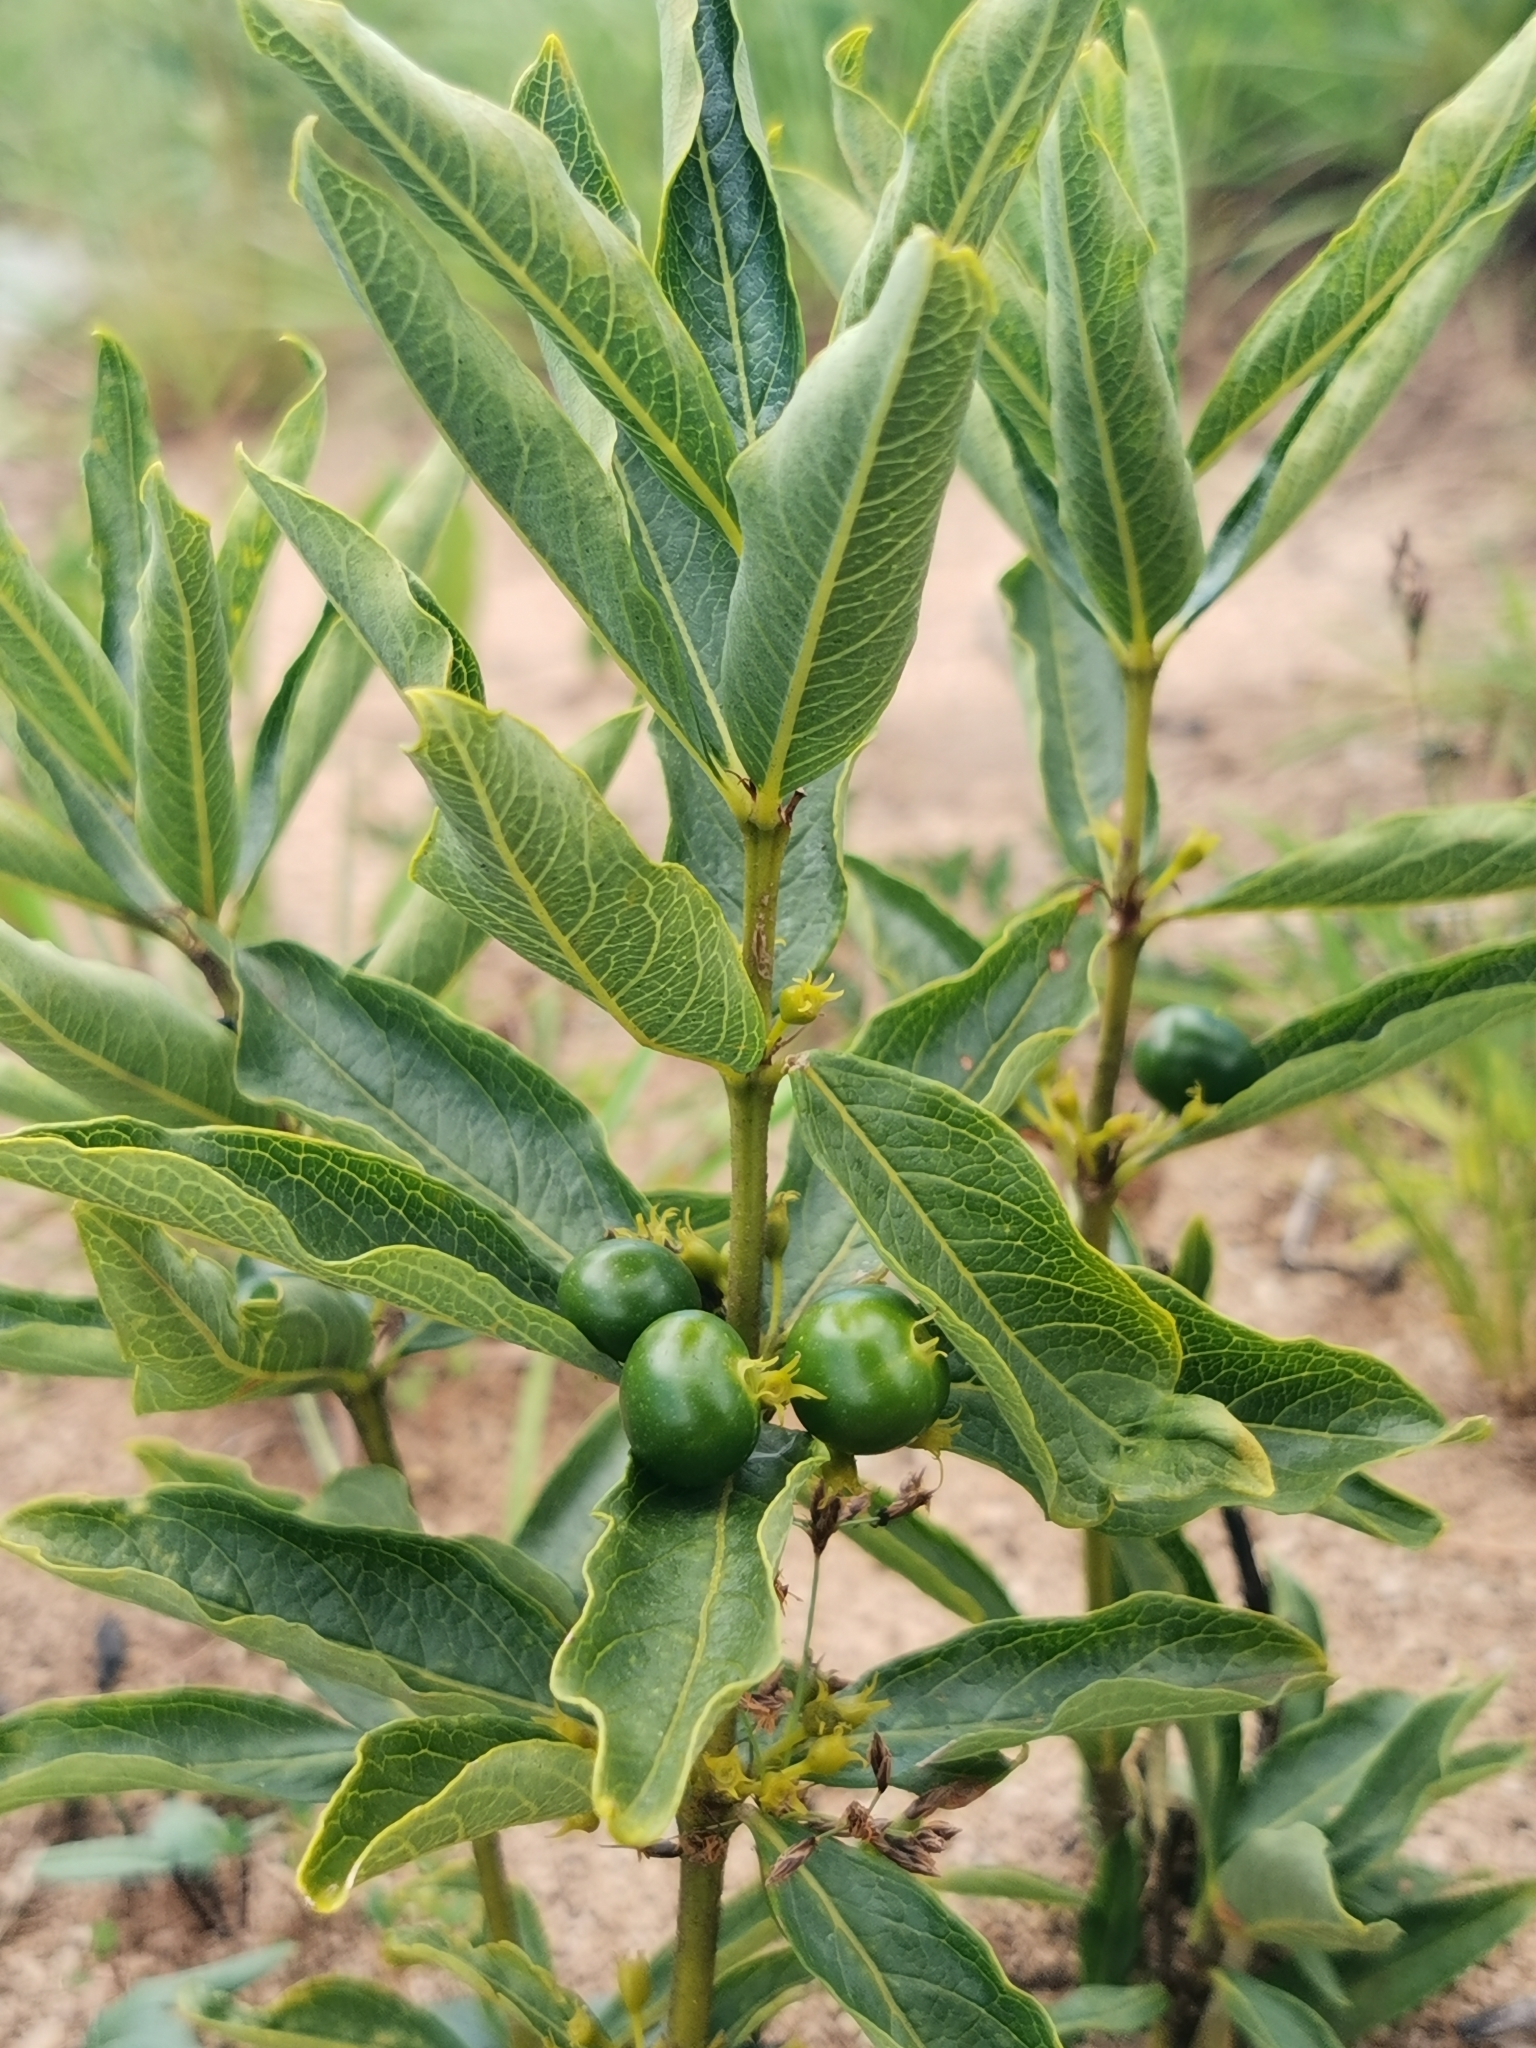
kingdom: Plantae
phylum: Tracheophyta
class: Magnoliopsida
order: Gentianales
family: Rubiaceae
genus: Fadogia
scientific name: Fadogia homblei
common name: Wild date
